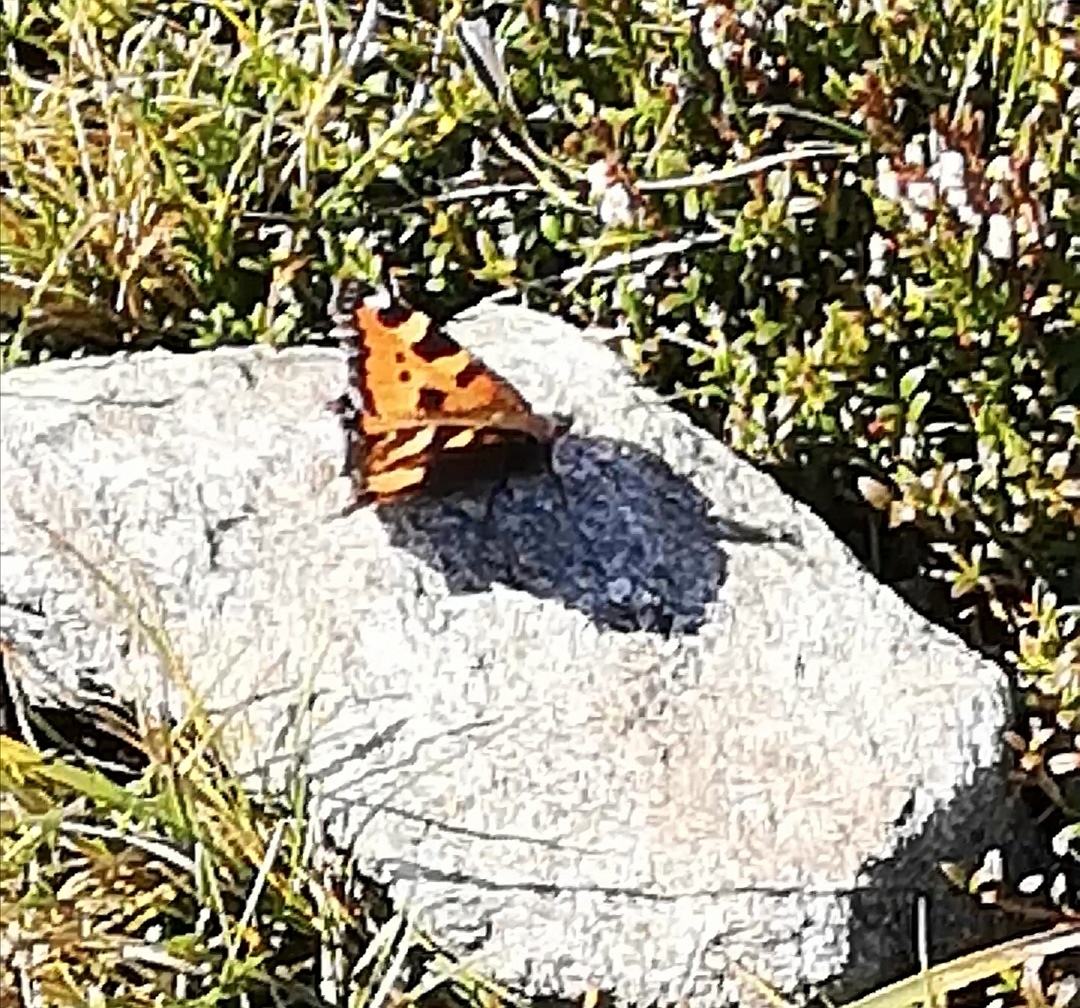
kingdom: Animalia
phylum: Arthropoda
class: Insecta
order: Lepidoptera
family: Nymphalidae
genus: Aglais
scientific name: Aglais urticae
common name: Small tortoiseshell
